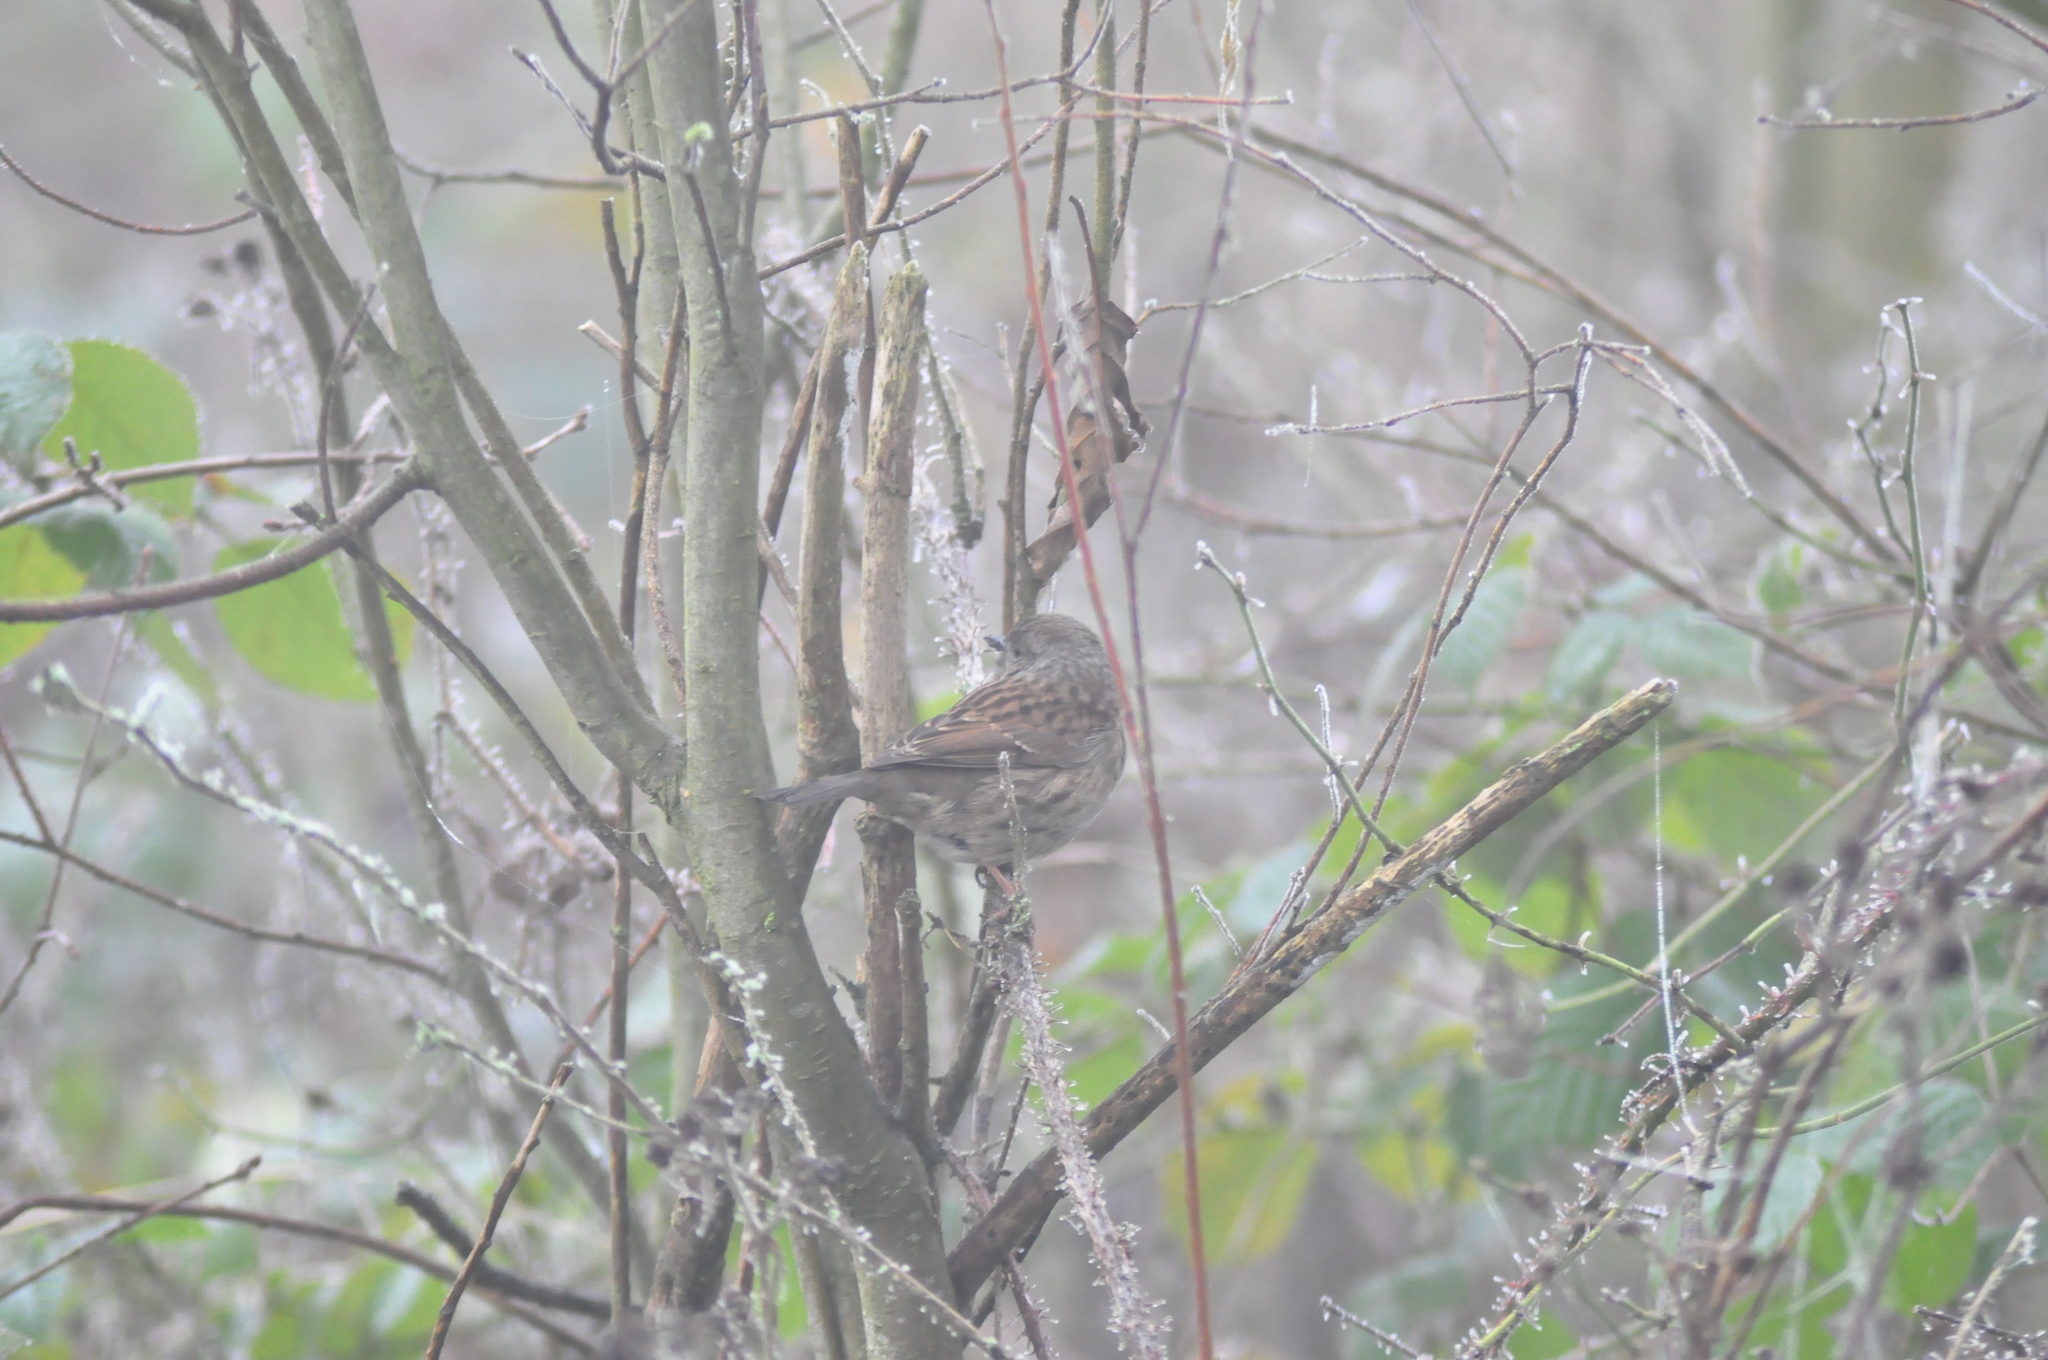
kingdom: Animalia
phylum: Chordata
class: Aves
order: Passeriformes
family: Prunellidae
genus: Prunella
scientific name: Prunella modularis
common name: Dunnock
